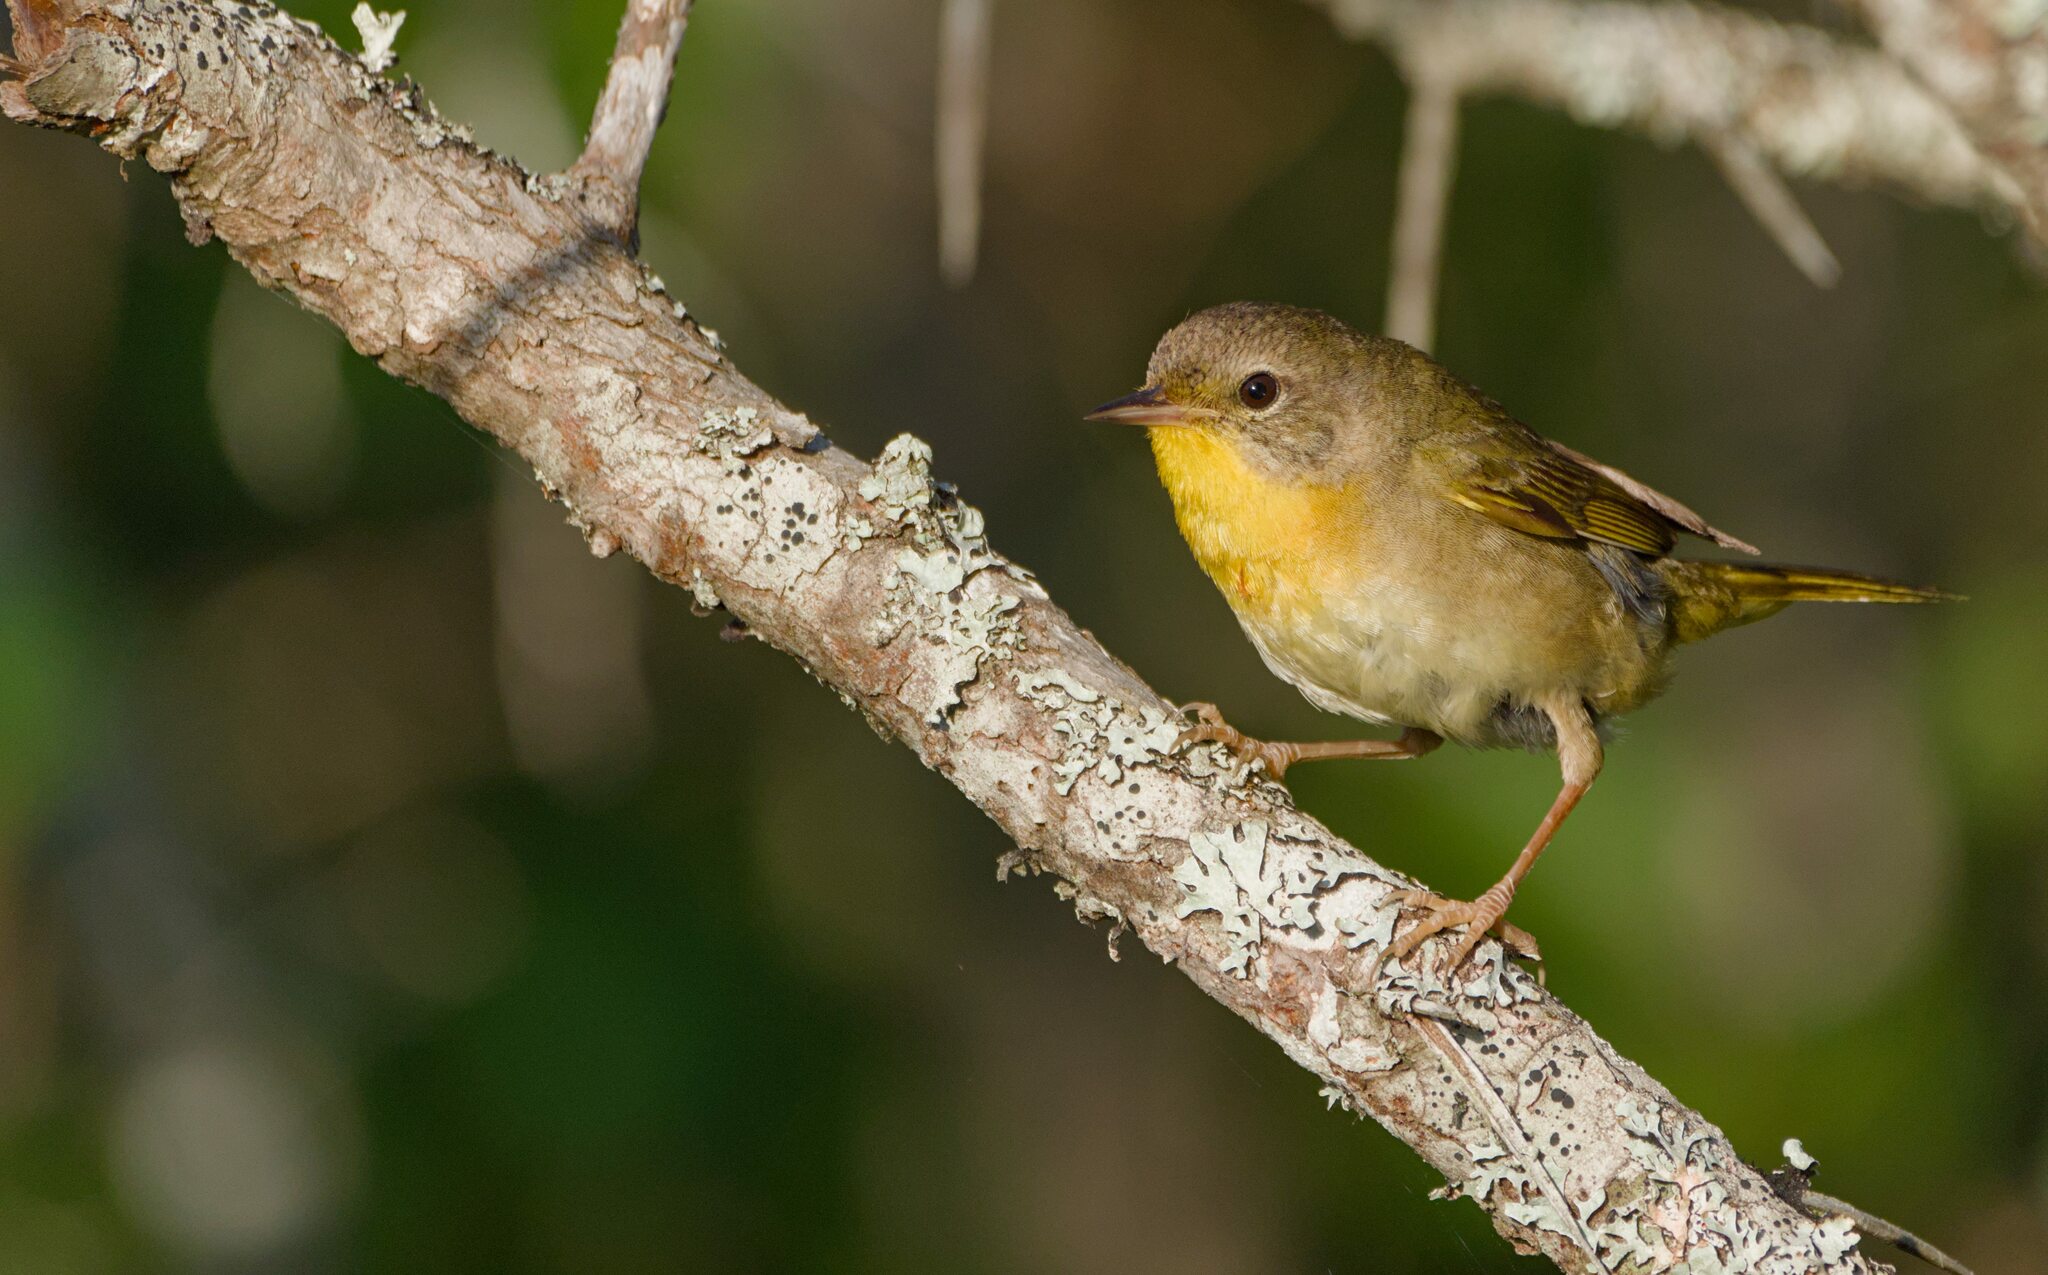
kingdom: Animalia
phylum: Chordata
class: Aves
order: Passeriformes
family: Parulidae
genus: Geothlypis
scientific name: Geothlypis trichas
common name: Common yellowthroat
